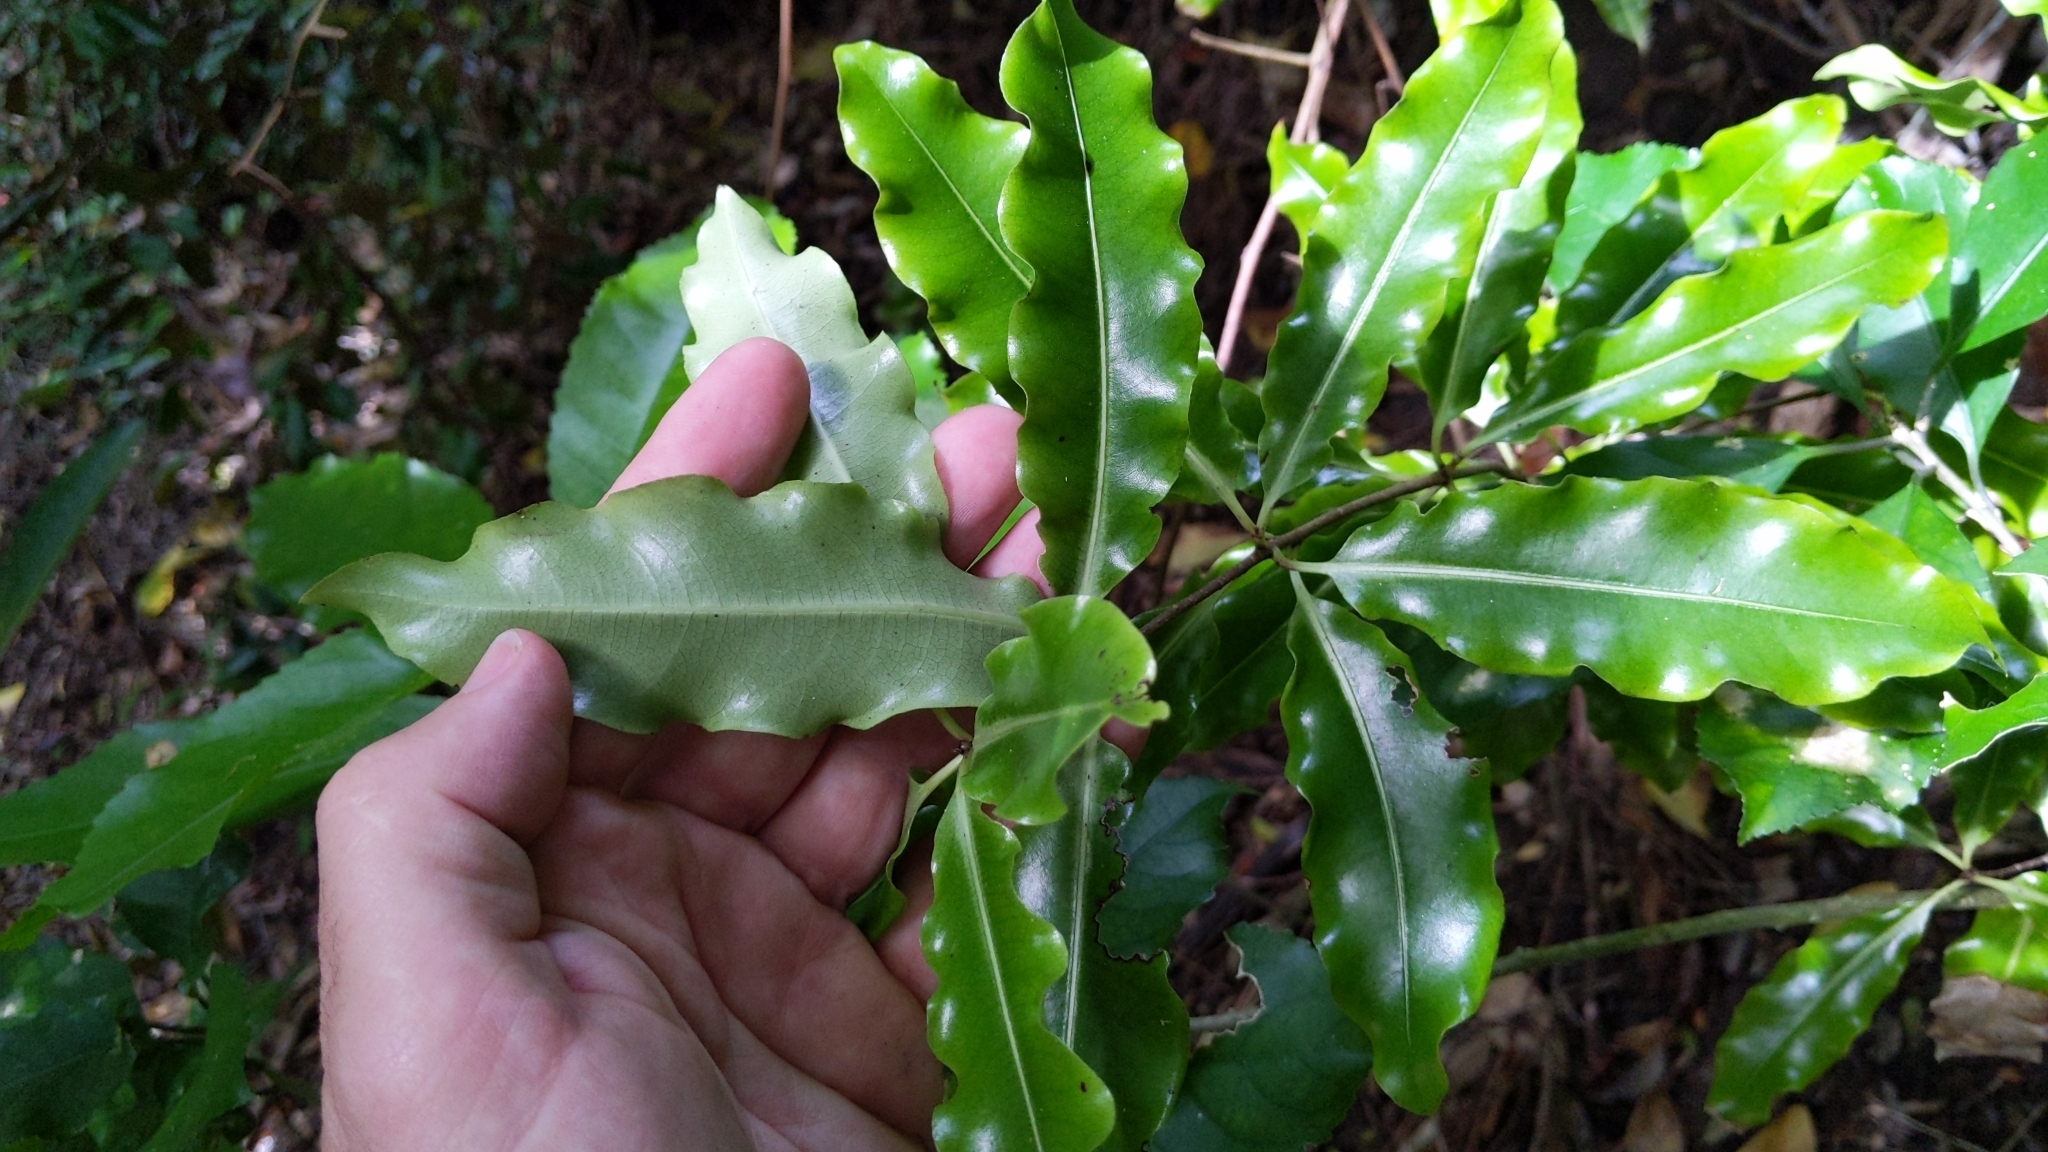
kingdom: Plantae
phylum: Tracheophyta
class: Magnoliopsida
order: Apiales
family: Pittosporaceae
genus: Pittosporum
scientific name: Pittosporum eugenioides
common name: Lemonwood
